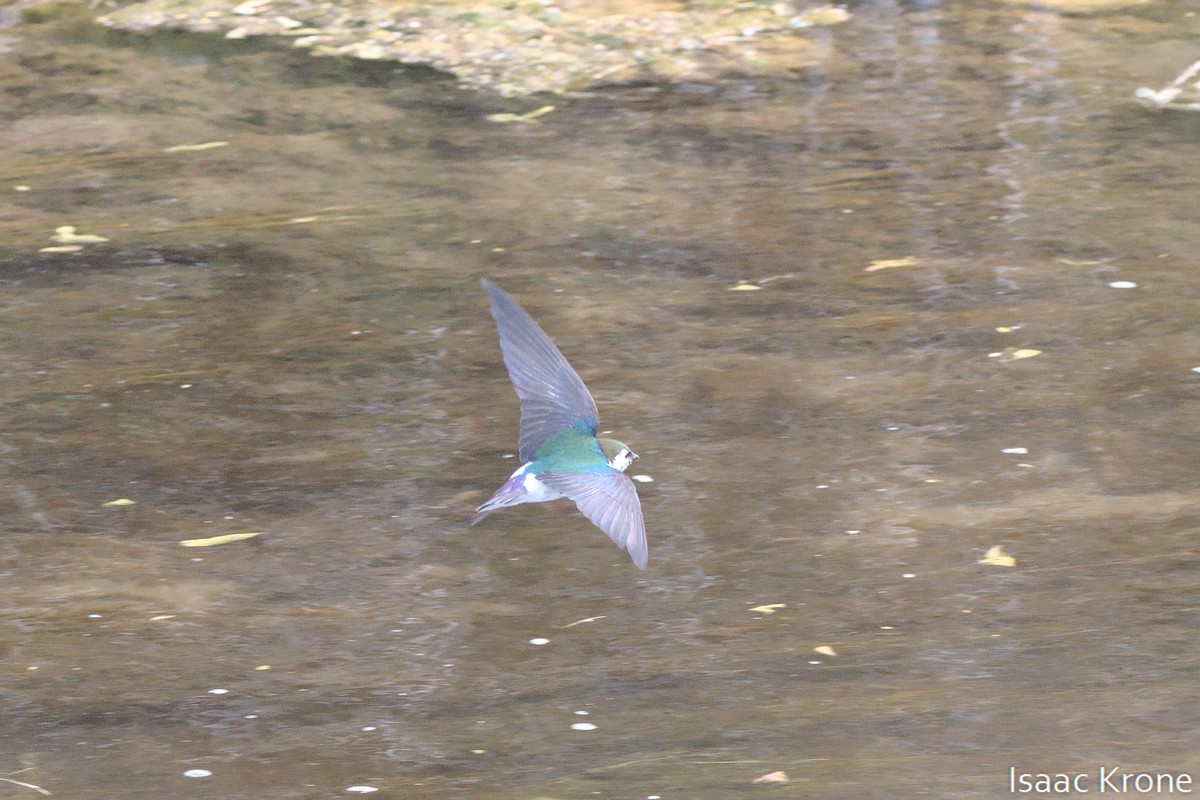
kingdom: Animalia
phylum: Chordata
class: Aves
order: Passeriformes
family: Hirundinidae
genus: Tachycineta
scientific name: Tachycineta thalassina
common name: Violet-green swallow
